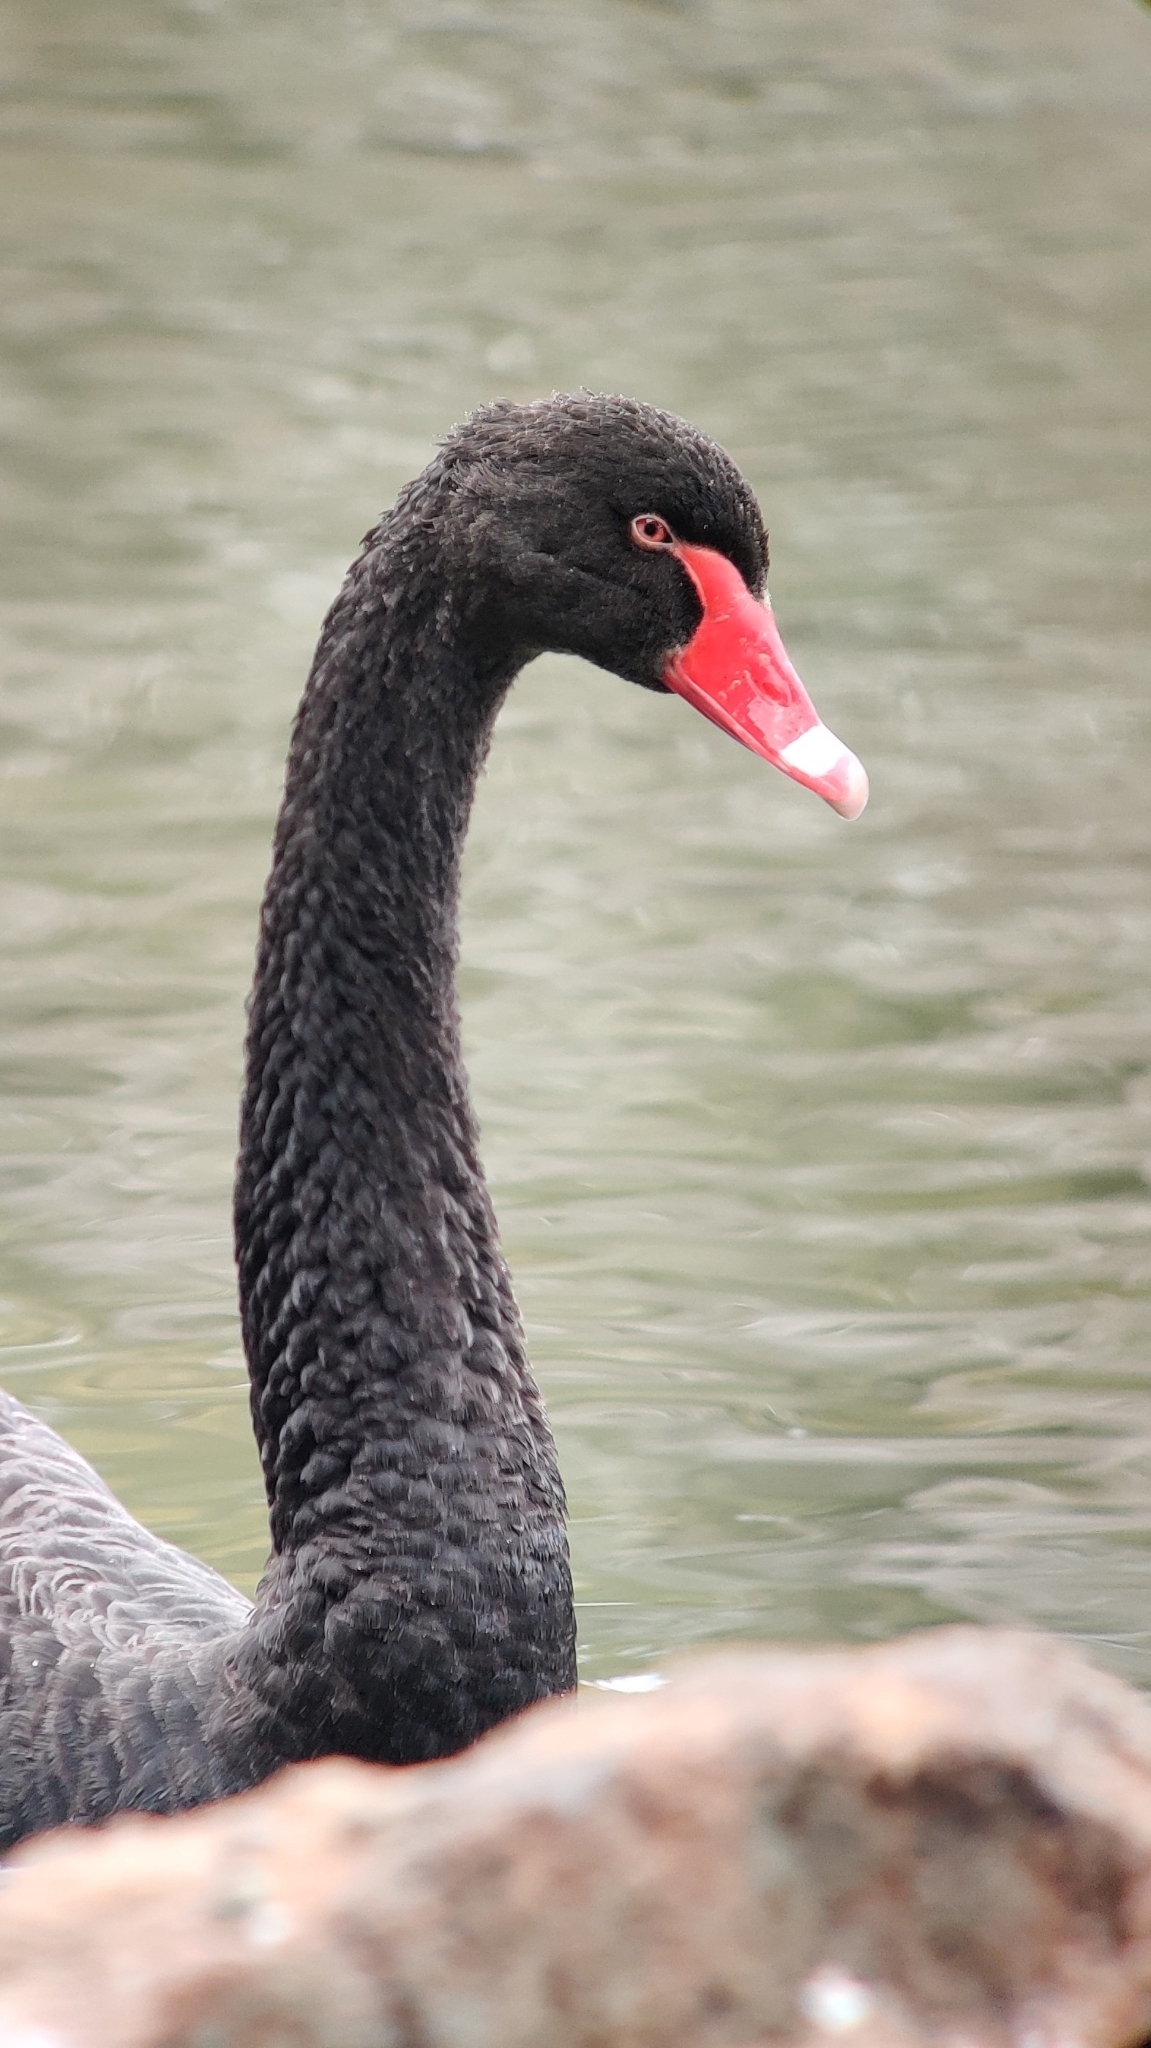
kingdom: Animalia
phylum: Chordata
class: Aves
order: Anseriformes
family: Anatidae
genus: Cygnus
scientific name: Cygnus atratus
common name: Black swan
